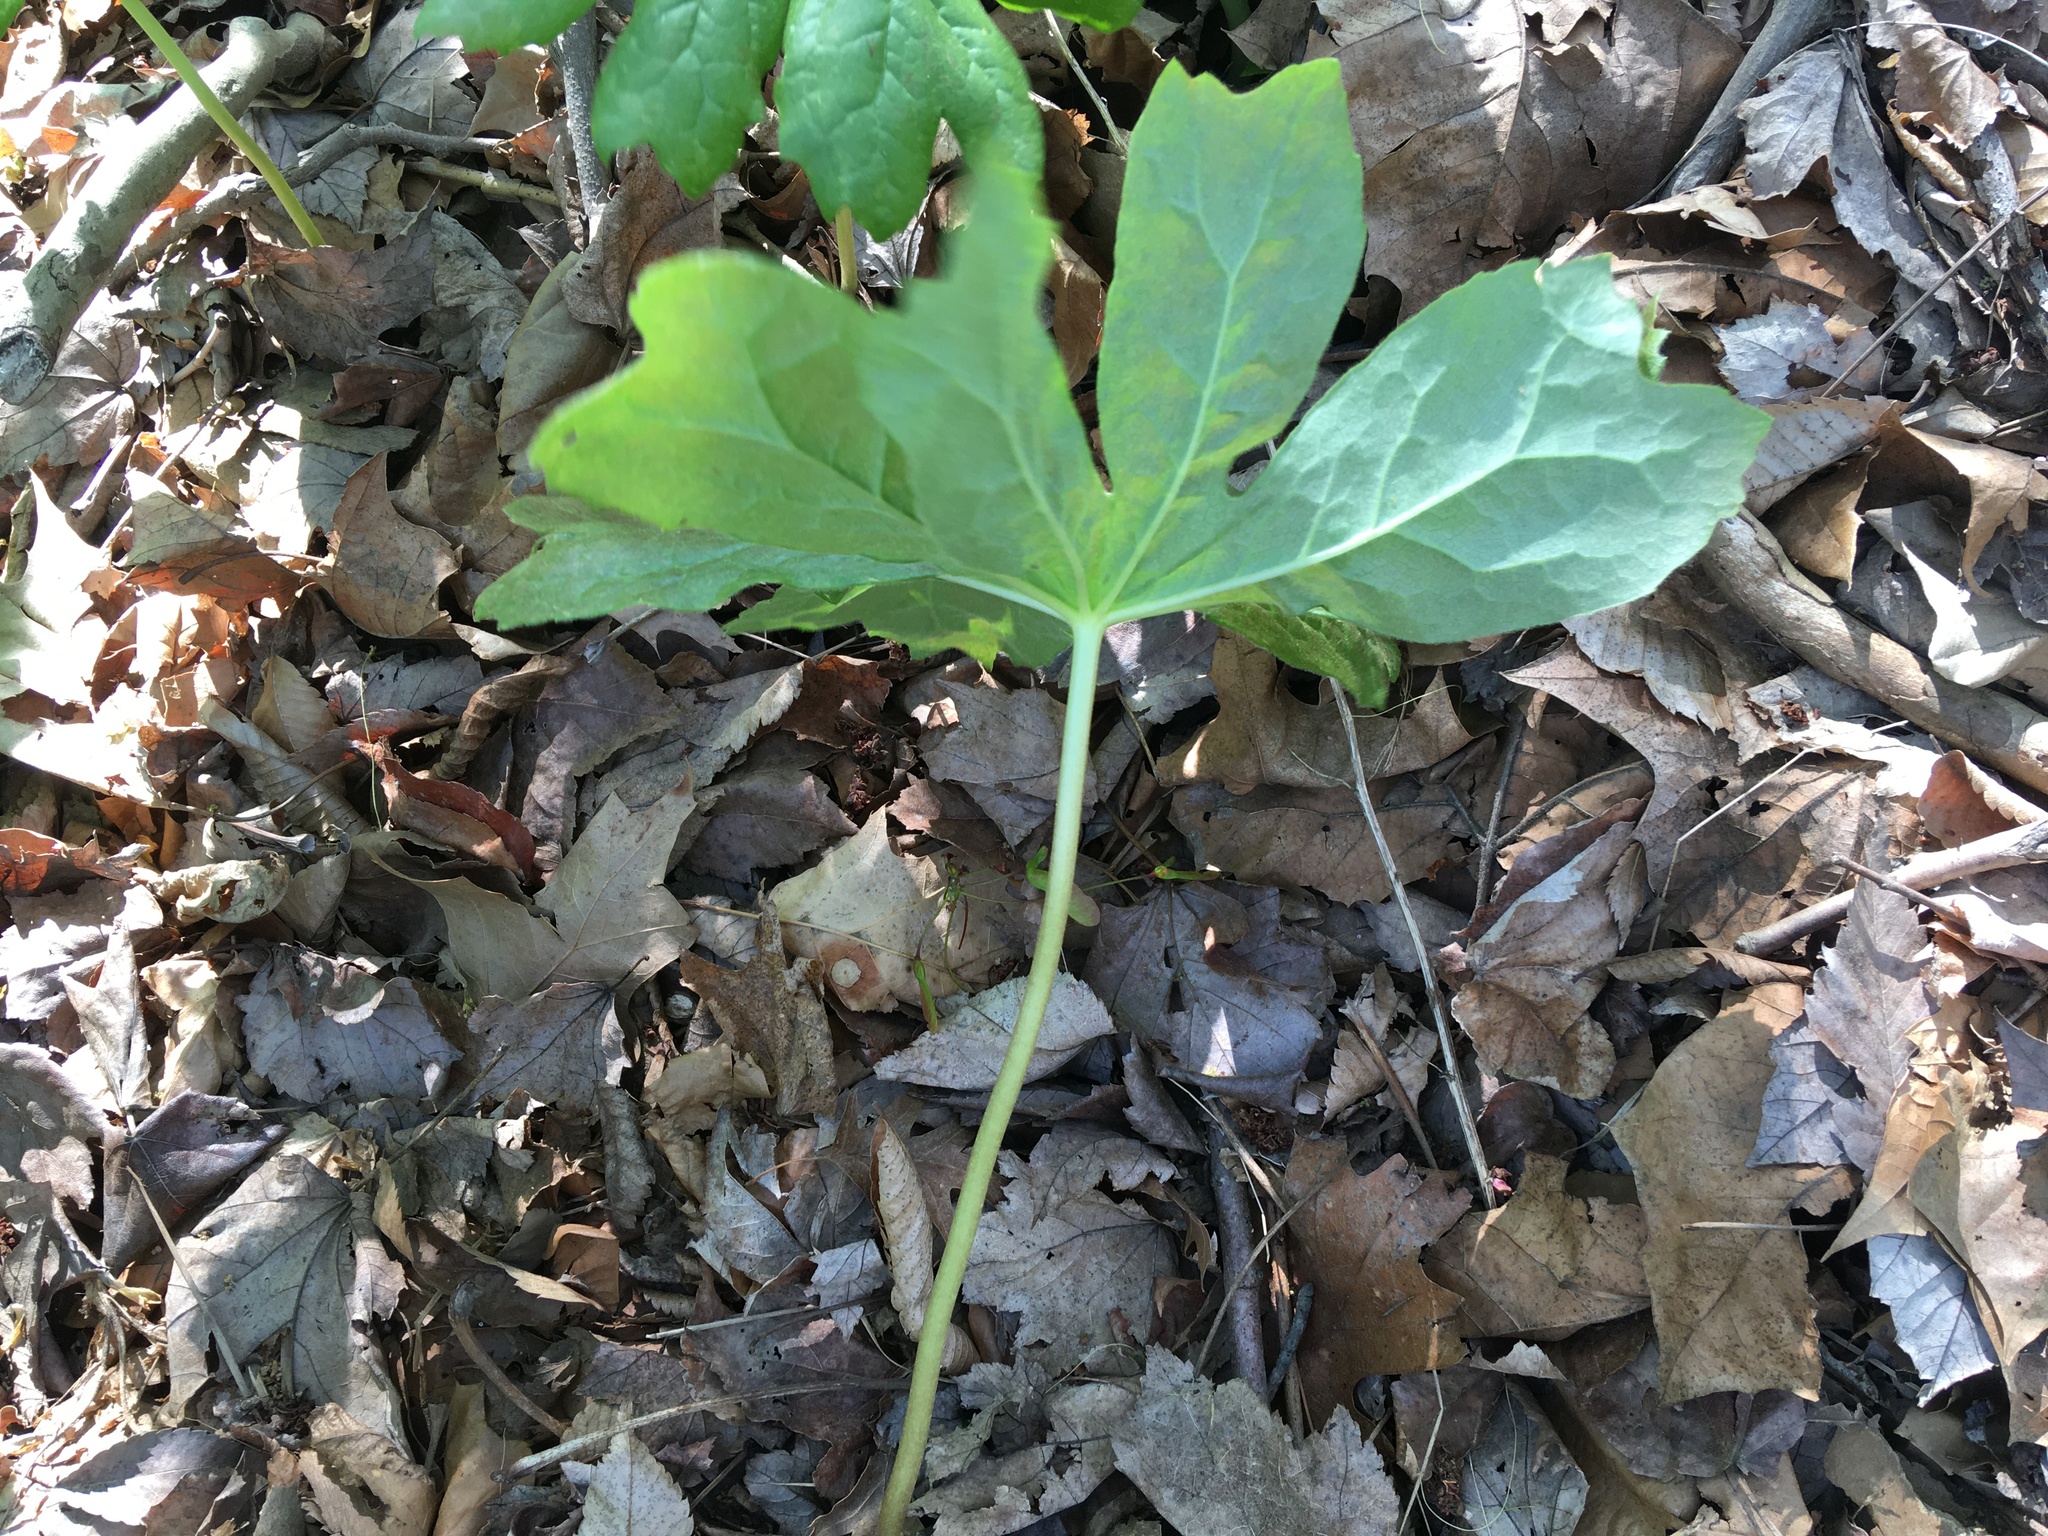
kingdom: Plantae
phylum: Tracheophyta
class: Magnoliopsida
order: Ranunculales
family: Berberidaceae
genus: Podophyllum
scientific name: Podophyllum peltatum
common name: Wild mandrake
